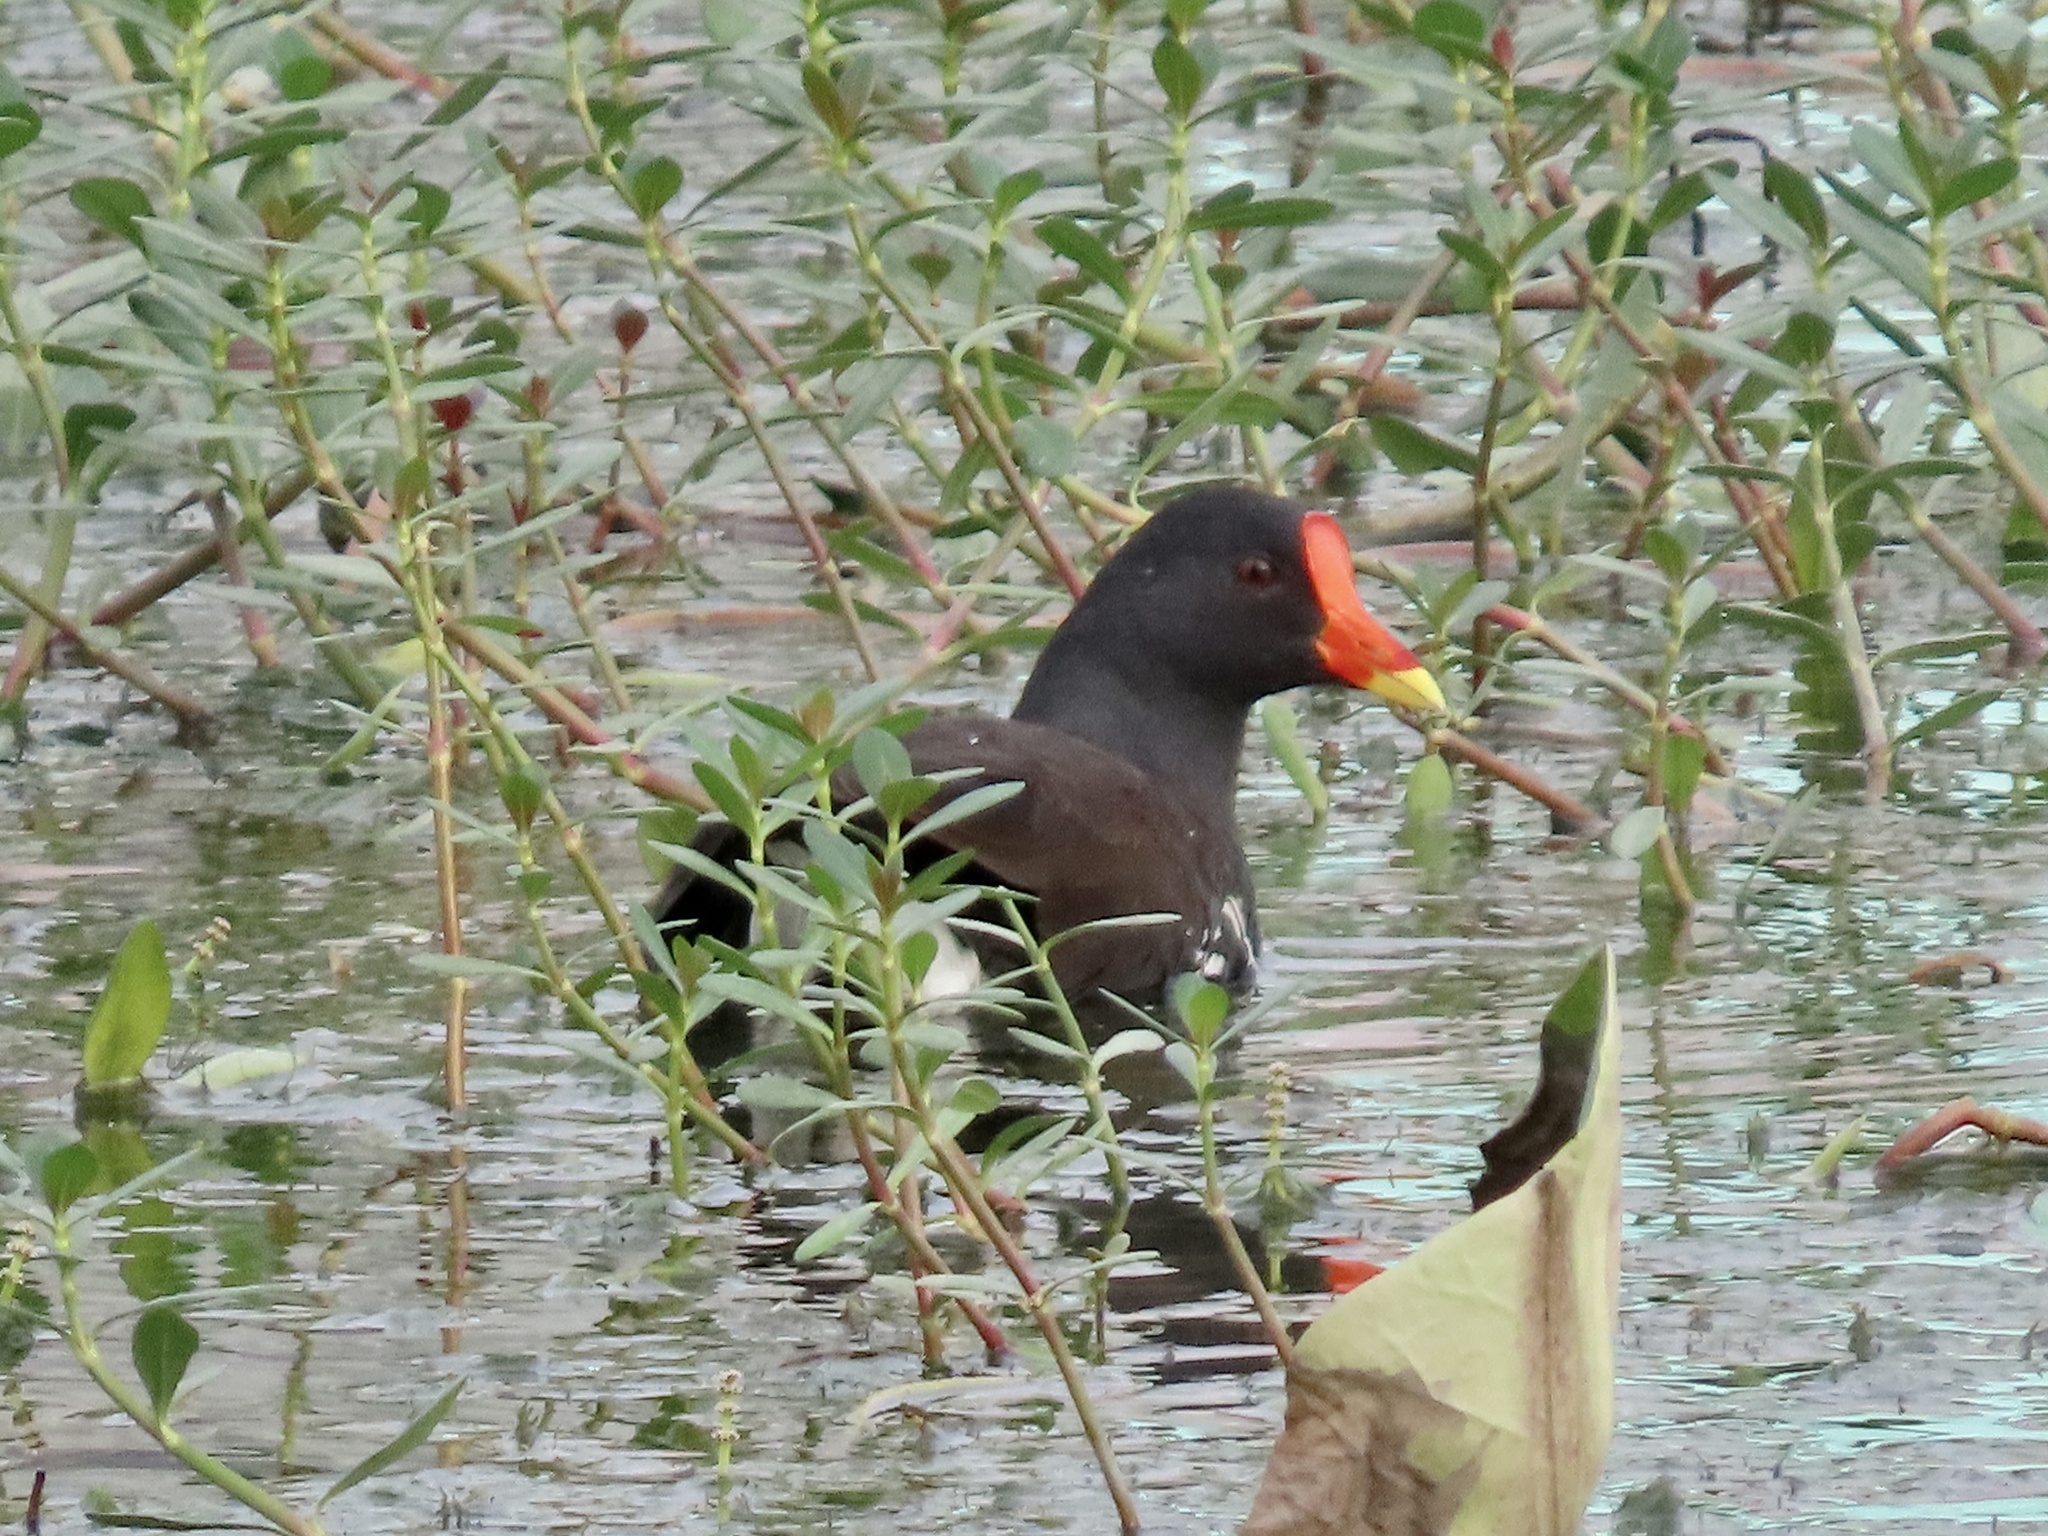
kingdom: Animalia
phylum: Chordata
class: Aves
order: Gruiformes
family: Rallidae
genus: Gallinula
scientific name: Gallinula chloropus
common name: Common moorhen
